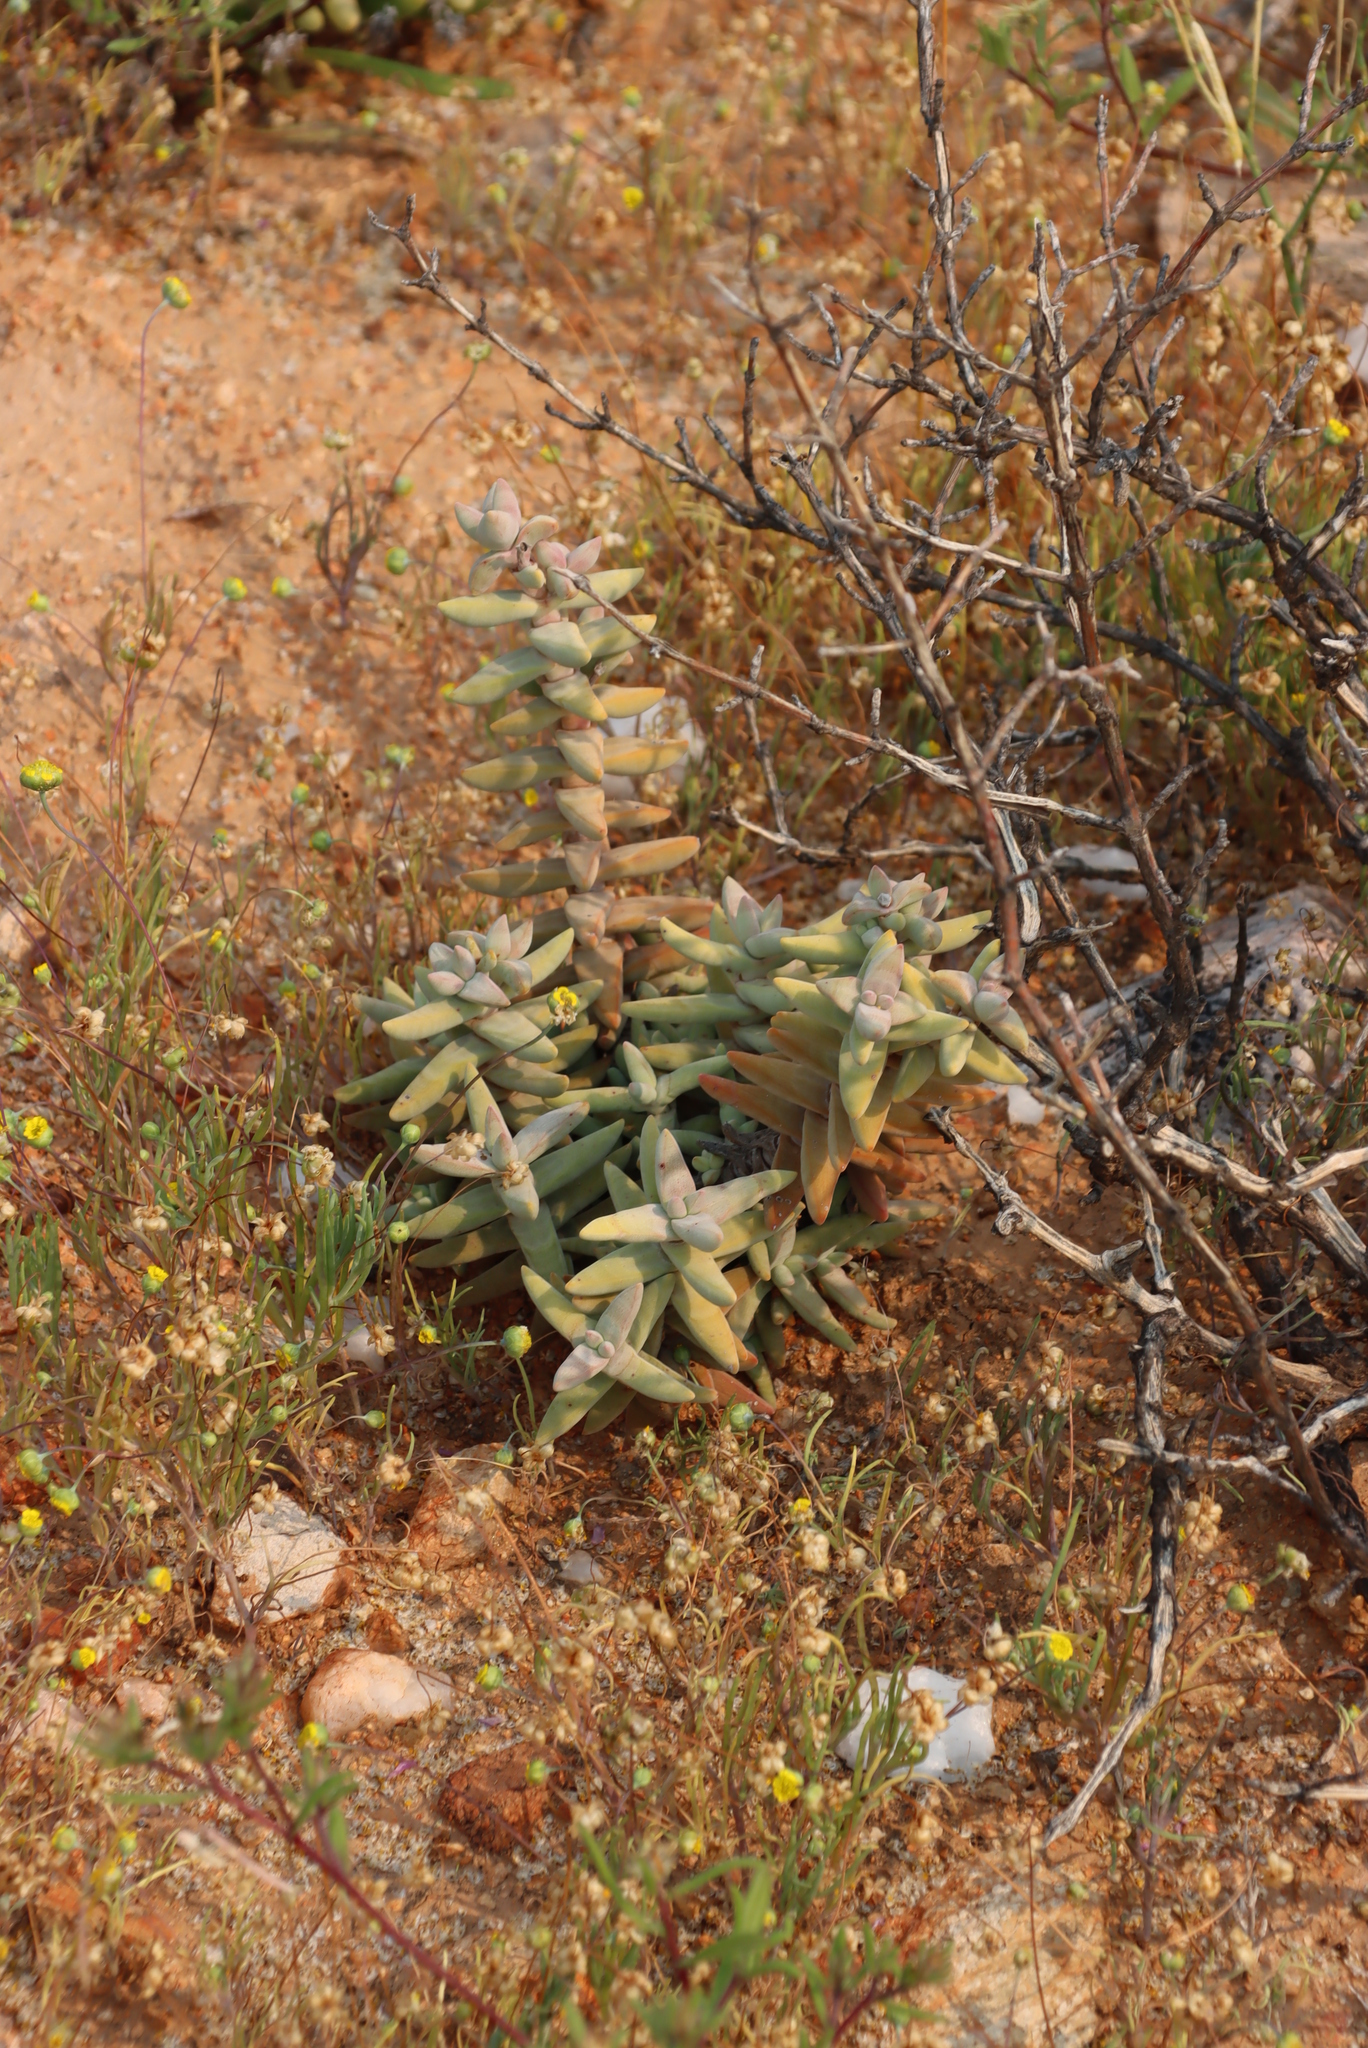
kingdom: Plantae
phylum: Tracheophyta
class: Magnoliopsida
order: Saxifragales
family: Crassulaceae
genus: Crassula
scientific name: Crassula grisea
